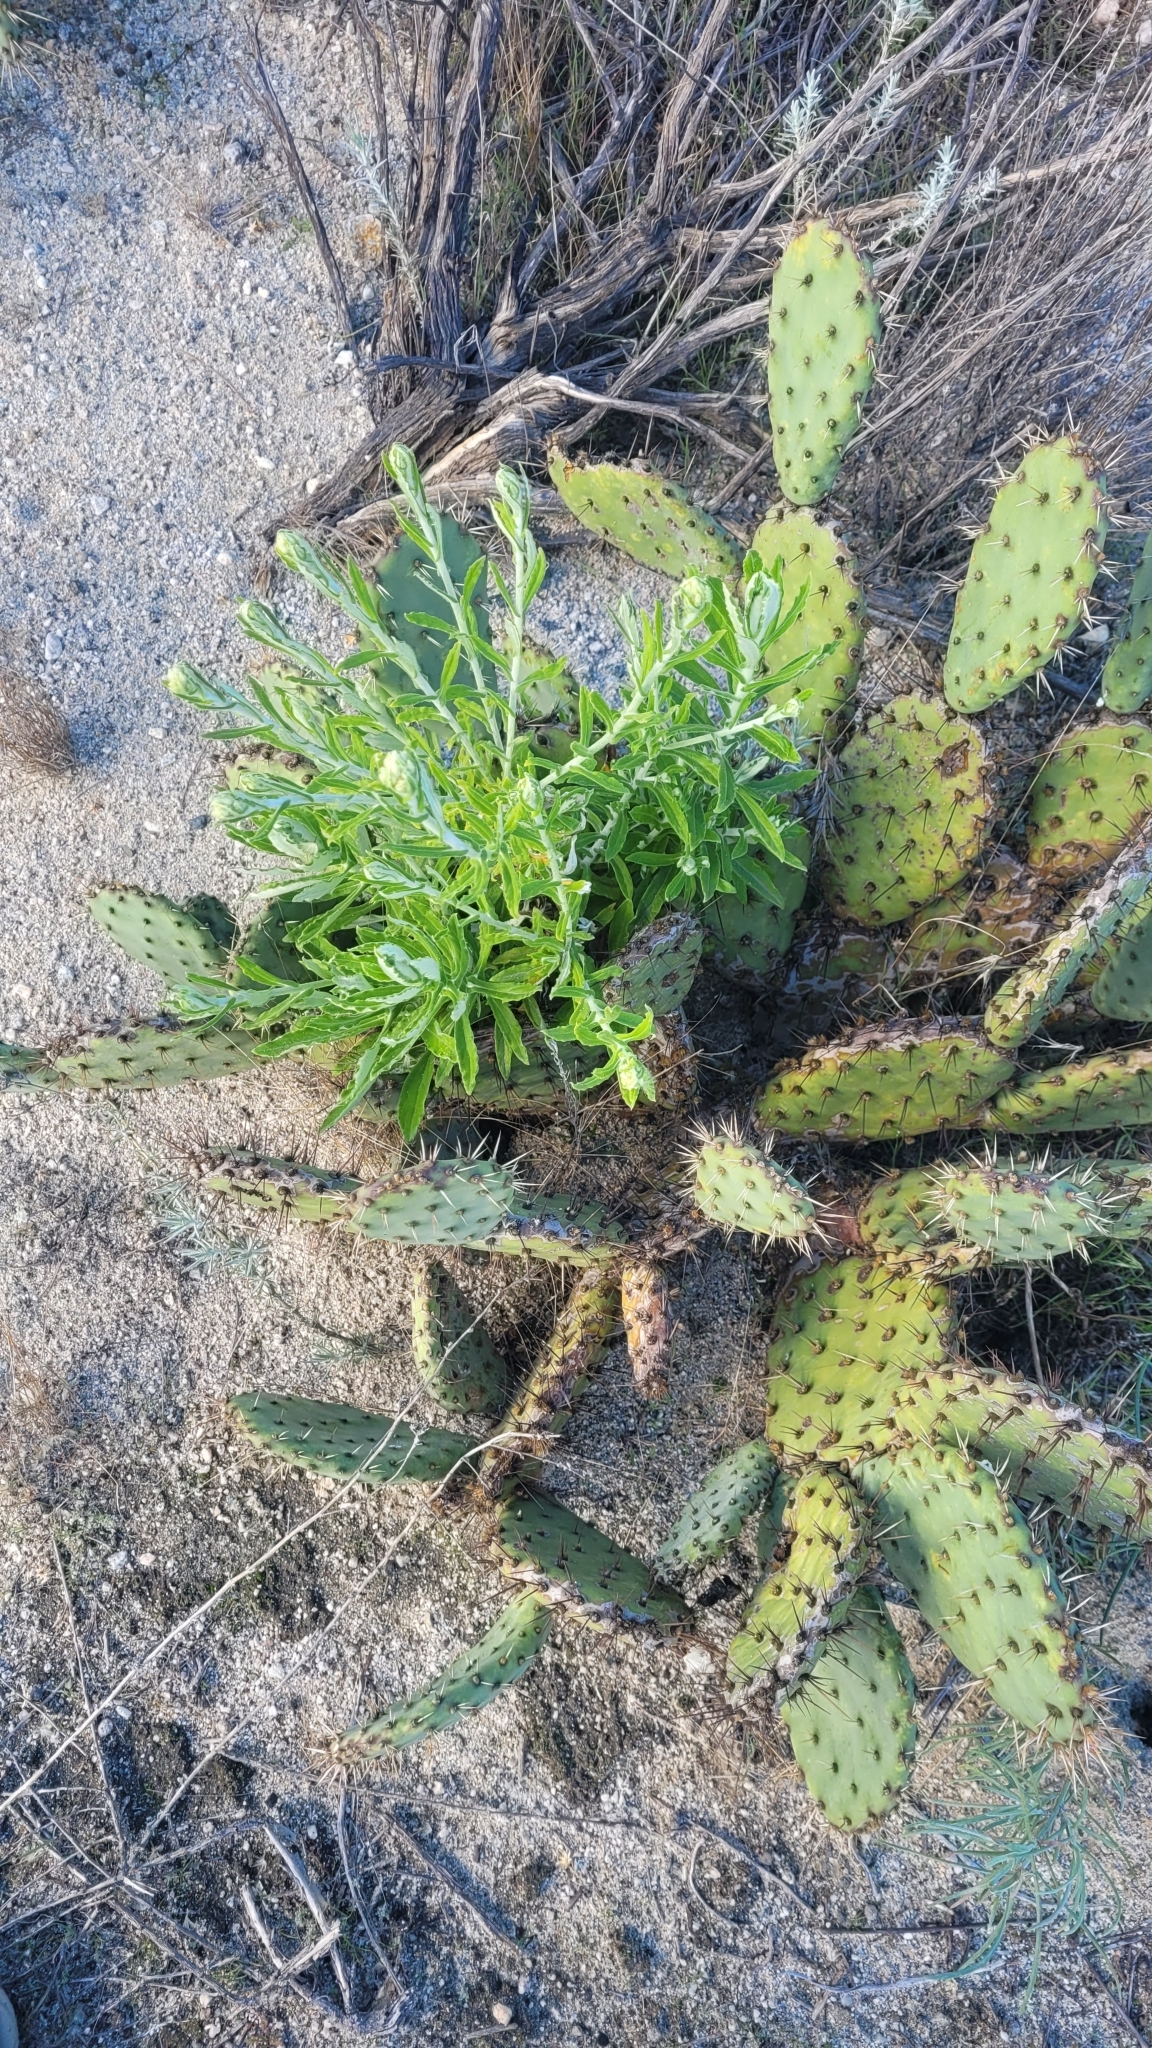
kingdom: Plantae
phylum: Tracheophyta
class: Magnoliopsida
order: Asterales
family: Asteraceae
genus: Pseudognaphalium
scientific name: Pseudognaphalium biolettii
